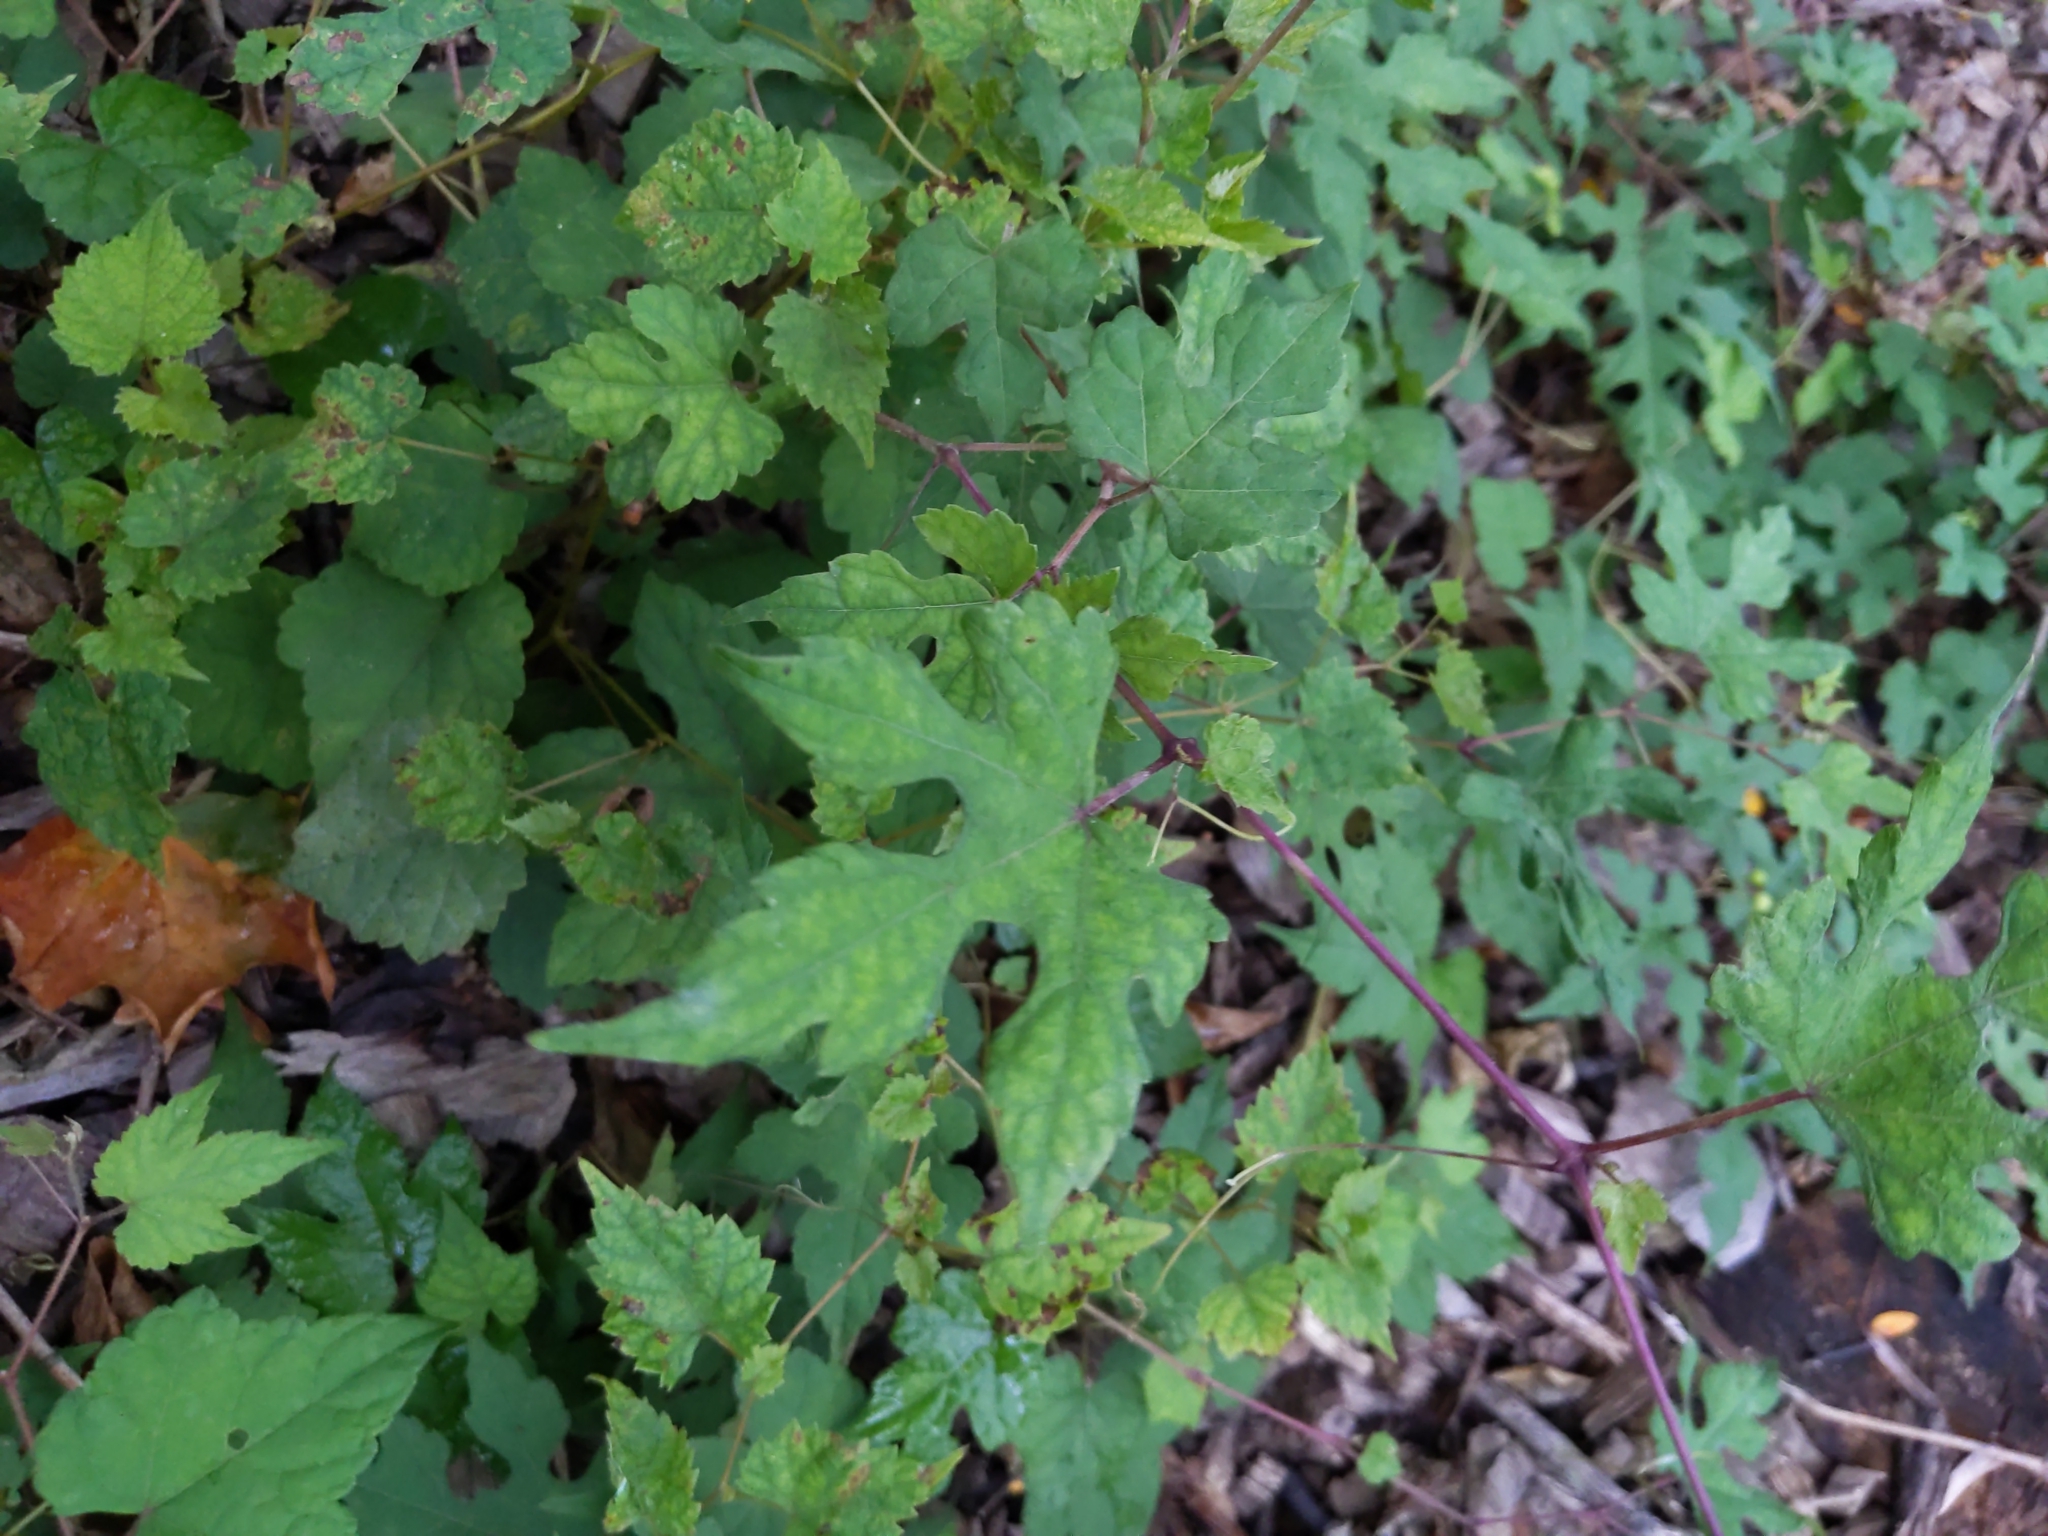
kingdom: Plantae
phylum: Tracheophyta
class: Magnoliopsida
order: Vitales
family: Vitaceae
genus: Ampelopsis
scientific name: Ampelopsis glandulosa
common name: Amur peppervine
